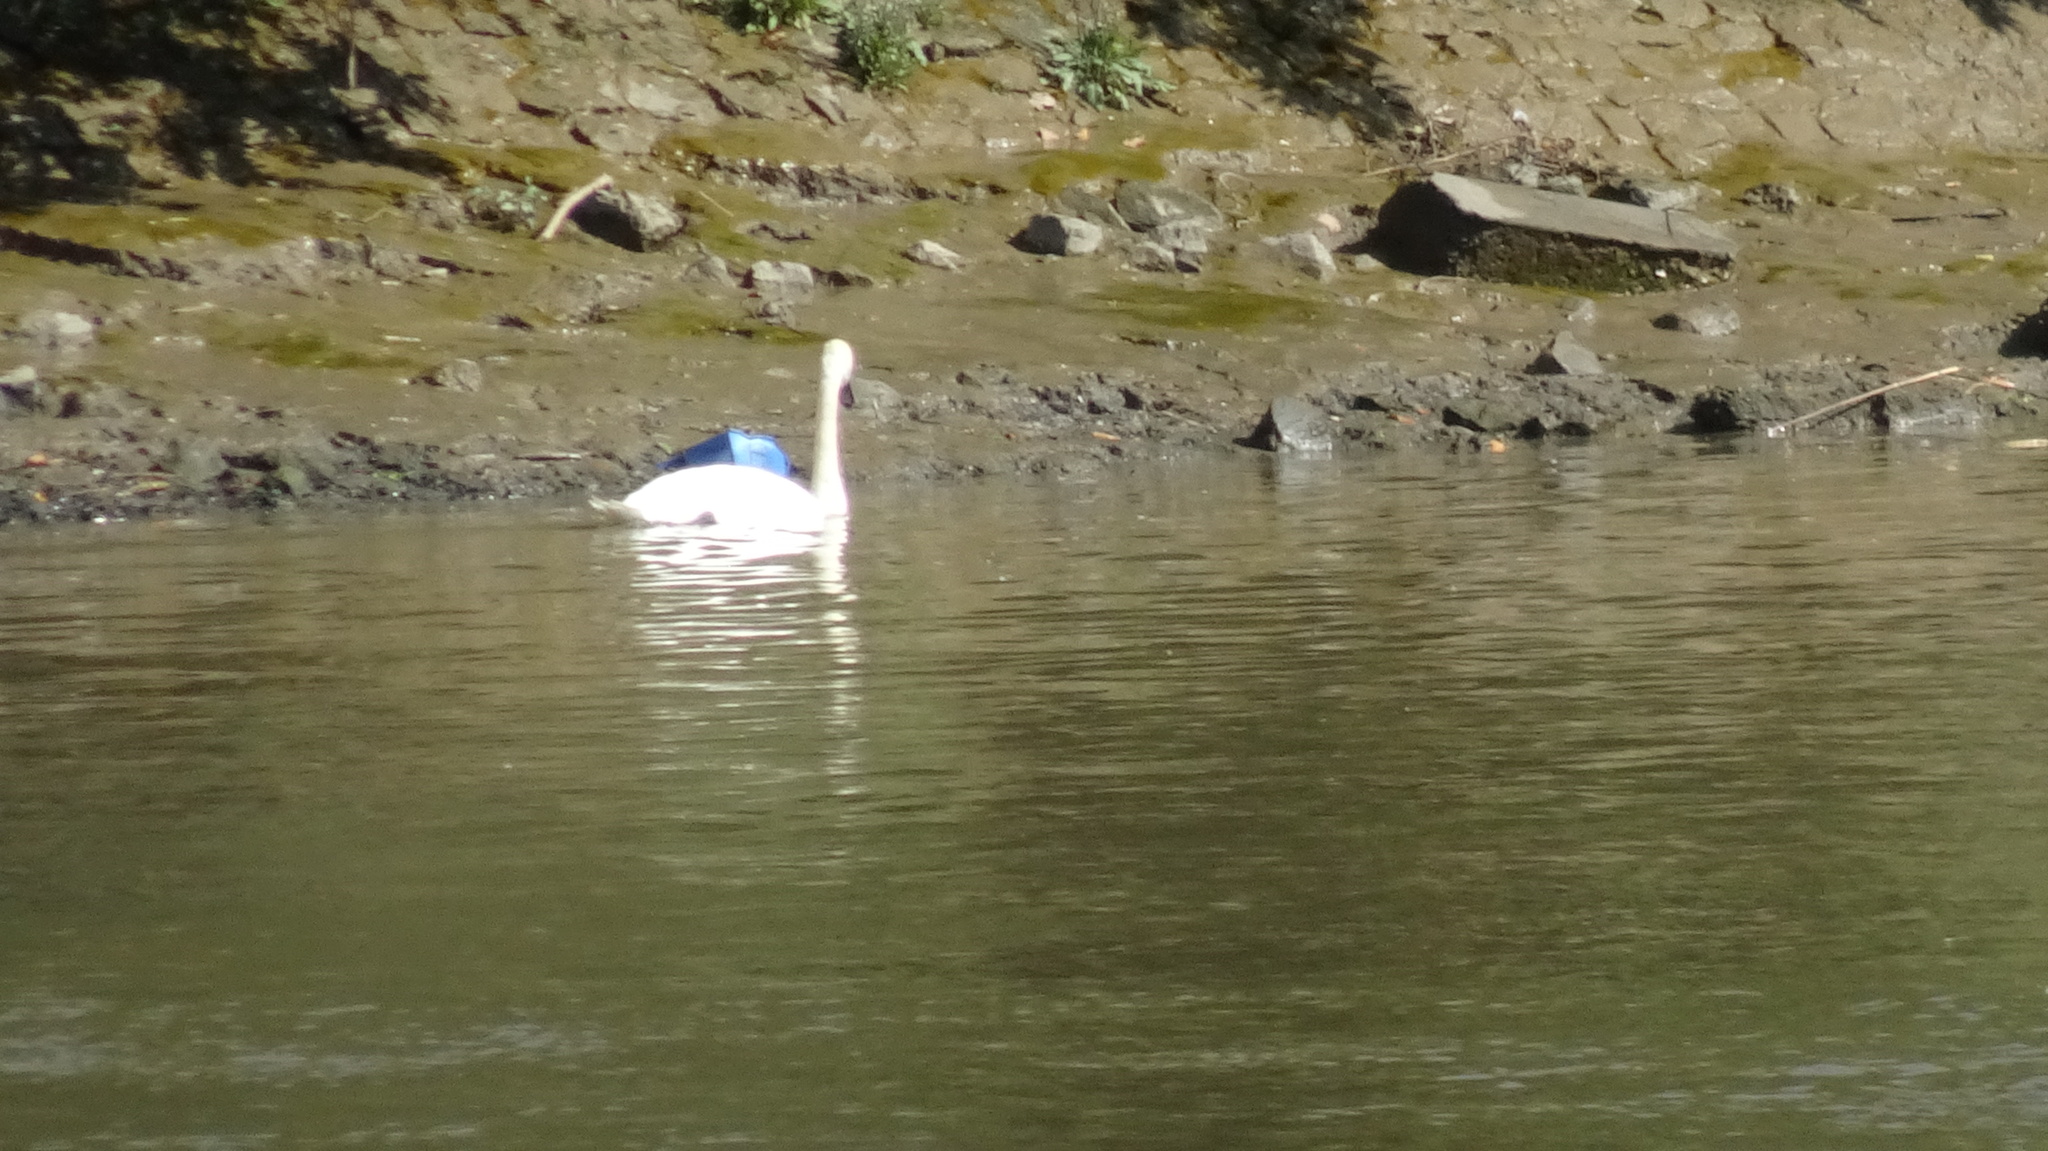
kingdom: Animalia
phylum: Chordata
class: Aves
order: Anseriformes
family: Anatidae
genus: Cygnus
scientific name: Cygnus olor
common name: Mute swan
